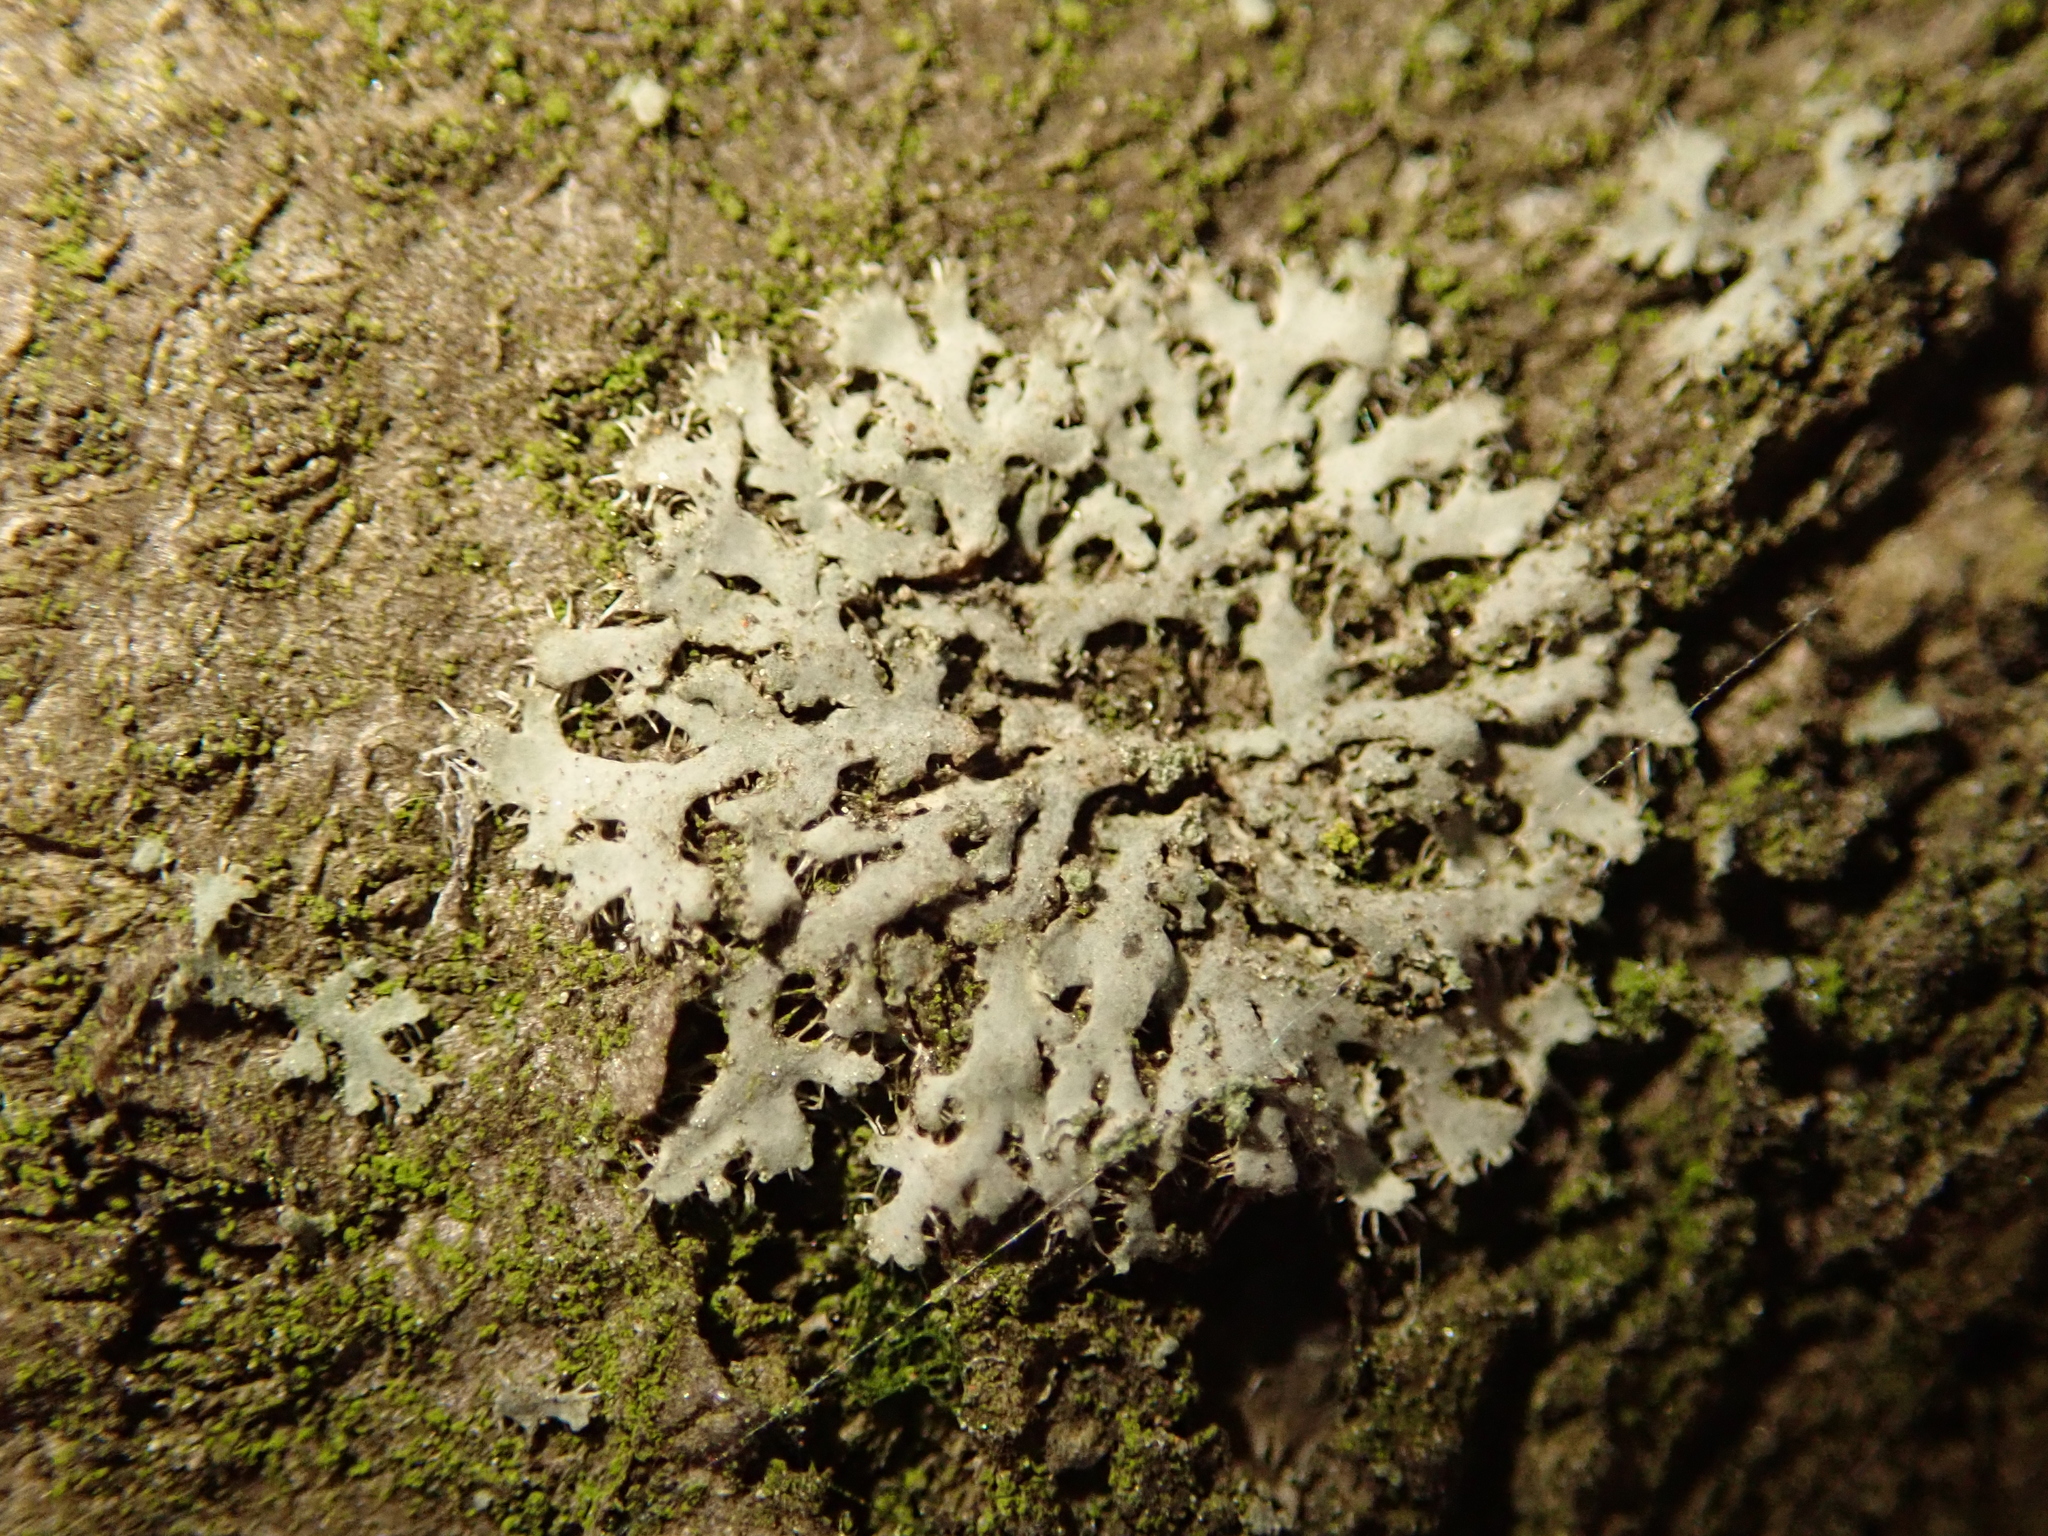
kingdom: Fungi
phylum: Ascomycota
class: Lecanoromycetes
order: Caliciales
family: Physciaceae
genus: Phaeophyscia
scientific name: Phaeophyscia orbicularis
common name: Mealy shadow lichen
